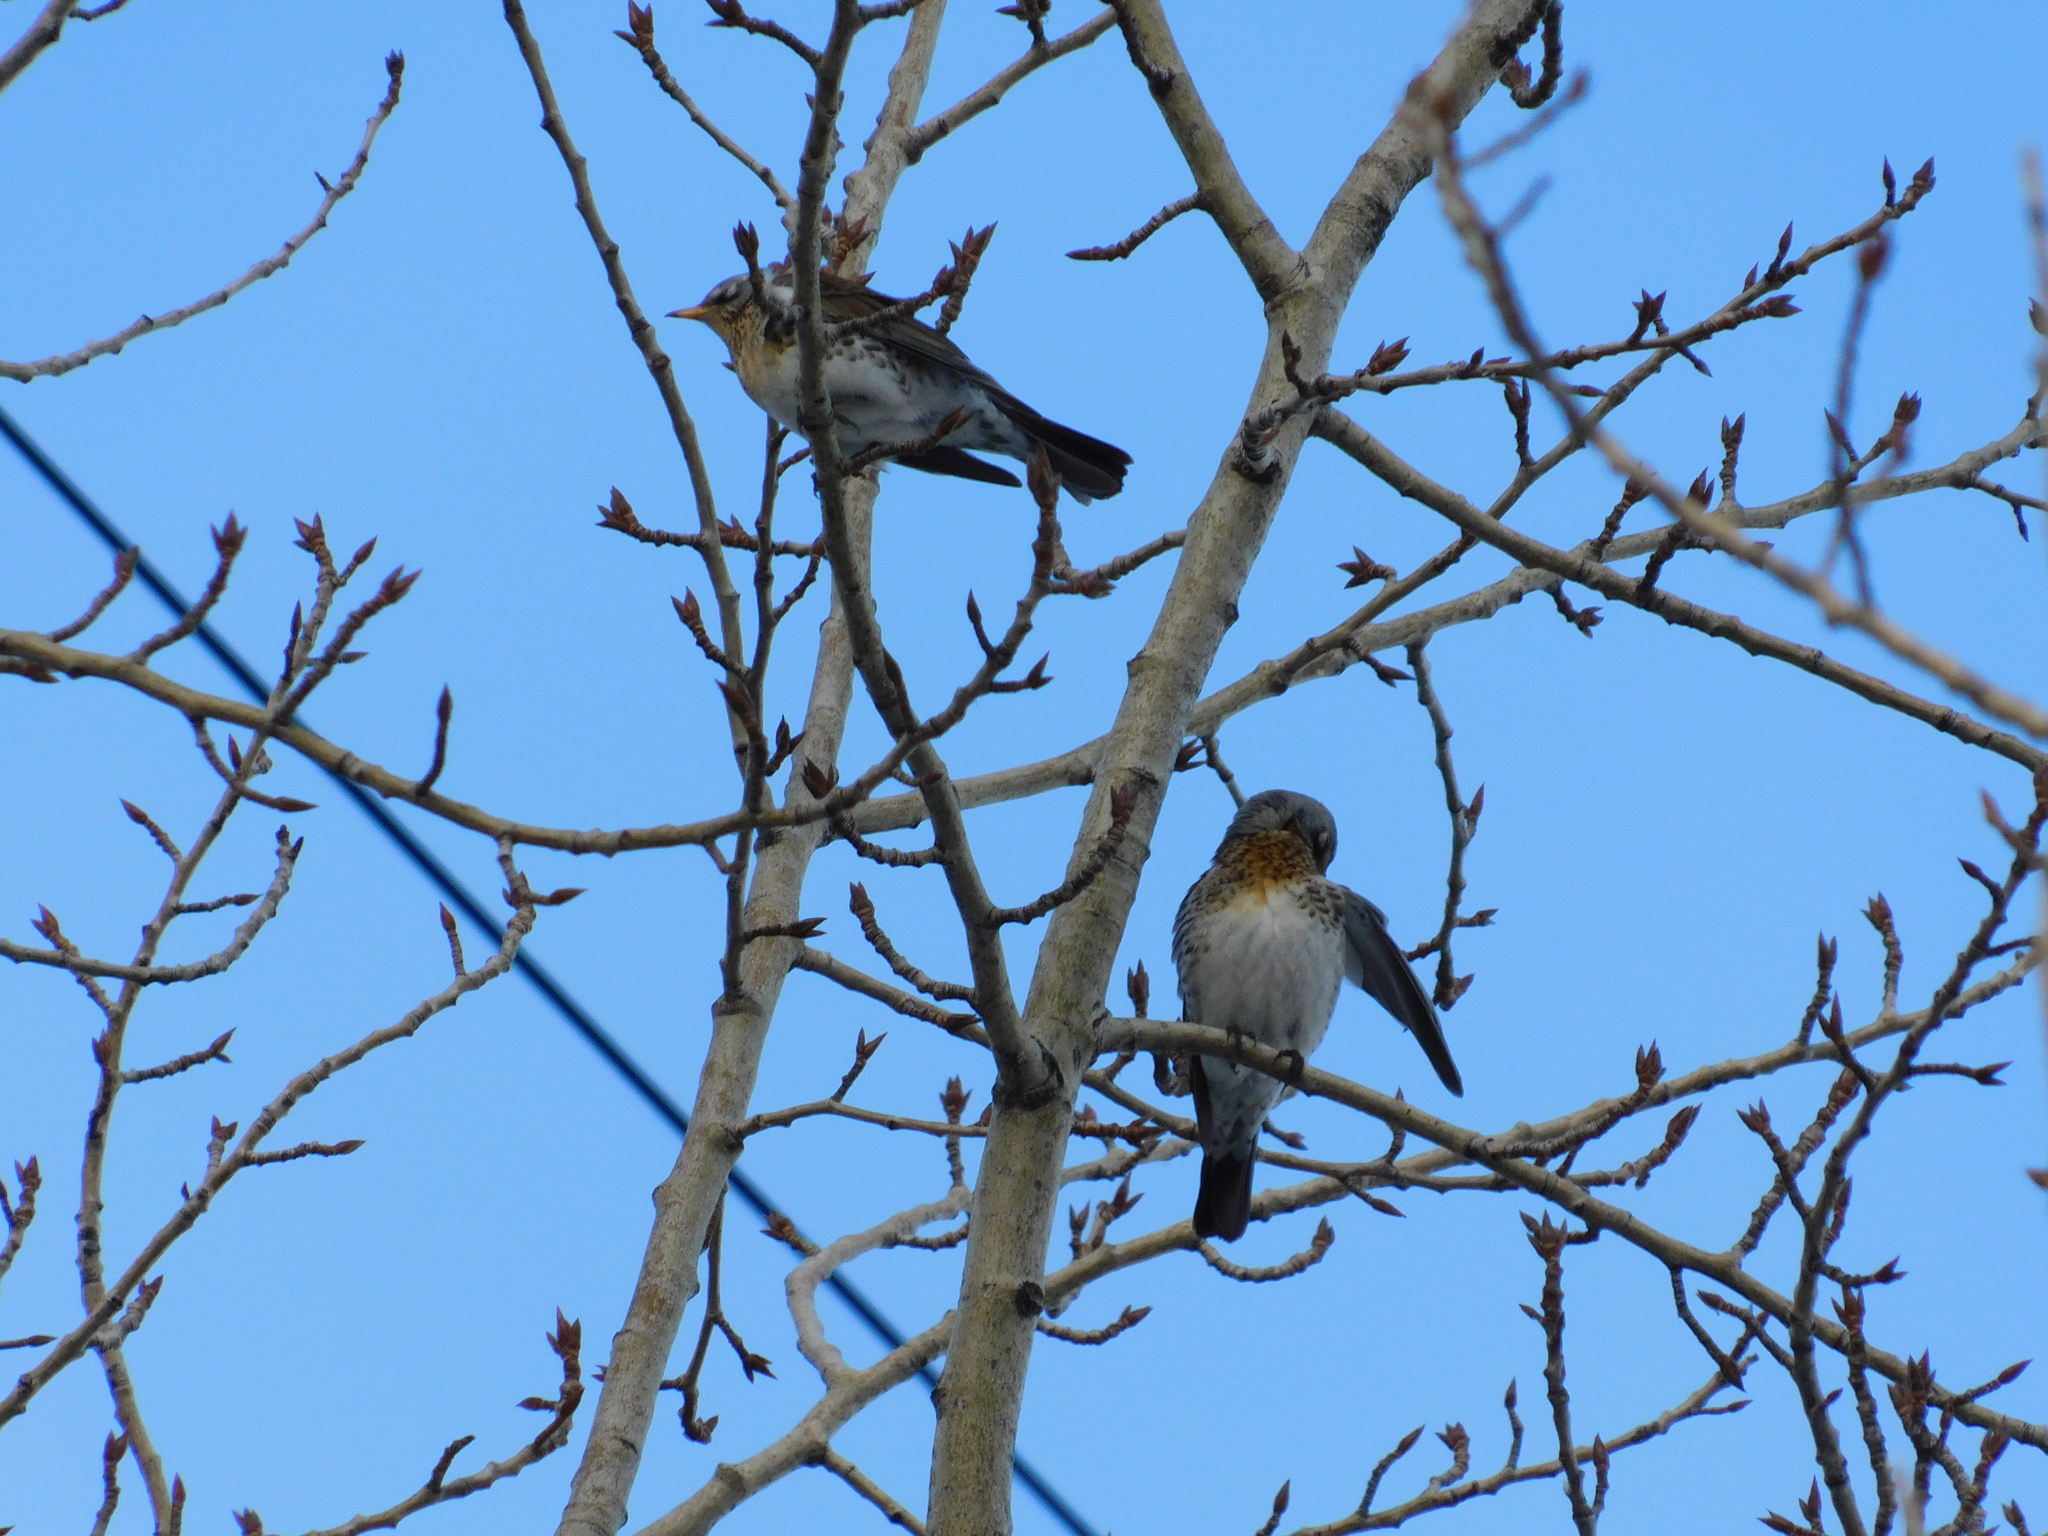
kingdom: Animalia
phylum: Chordata
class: Aves
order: Passeriformes
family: Turdidae
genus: Turdus
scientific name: Turdus pilaris
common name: Fieldfare
